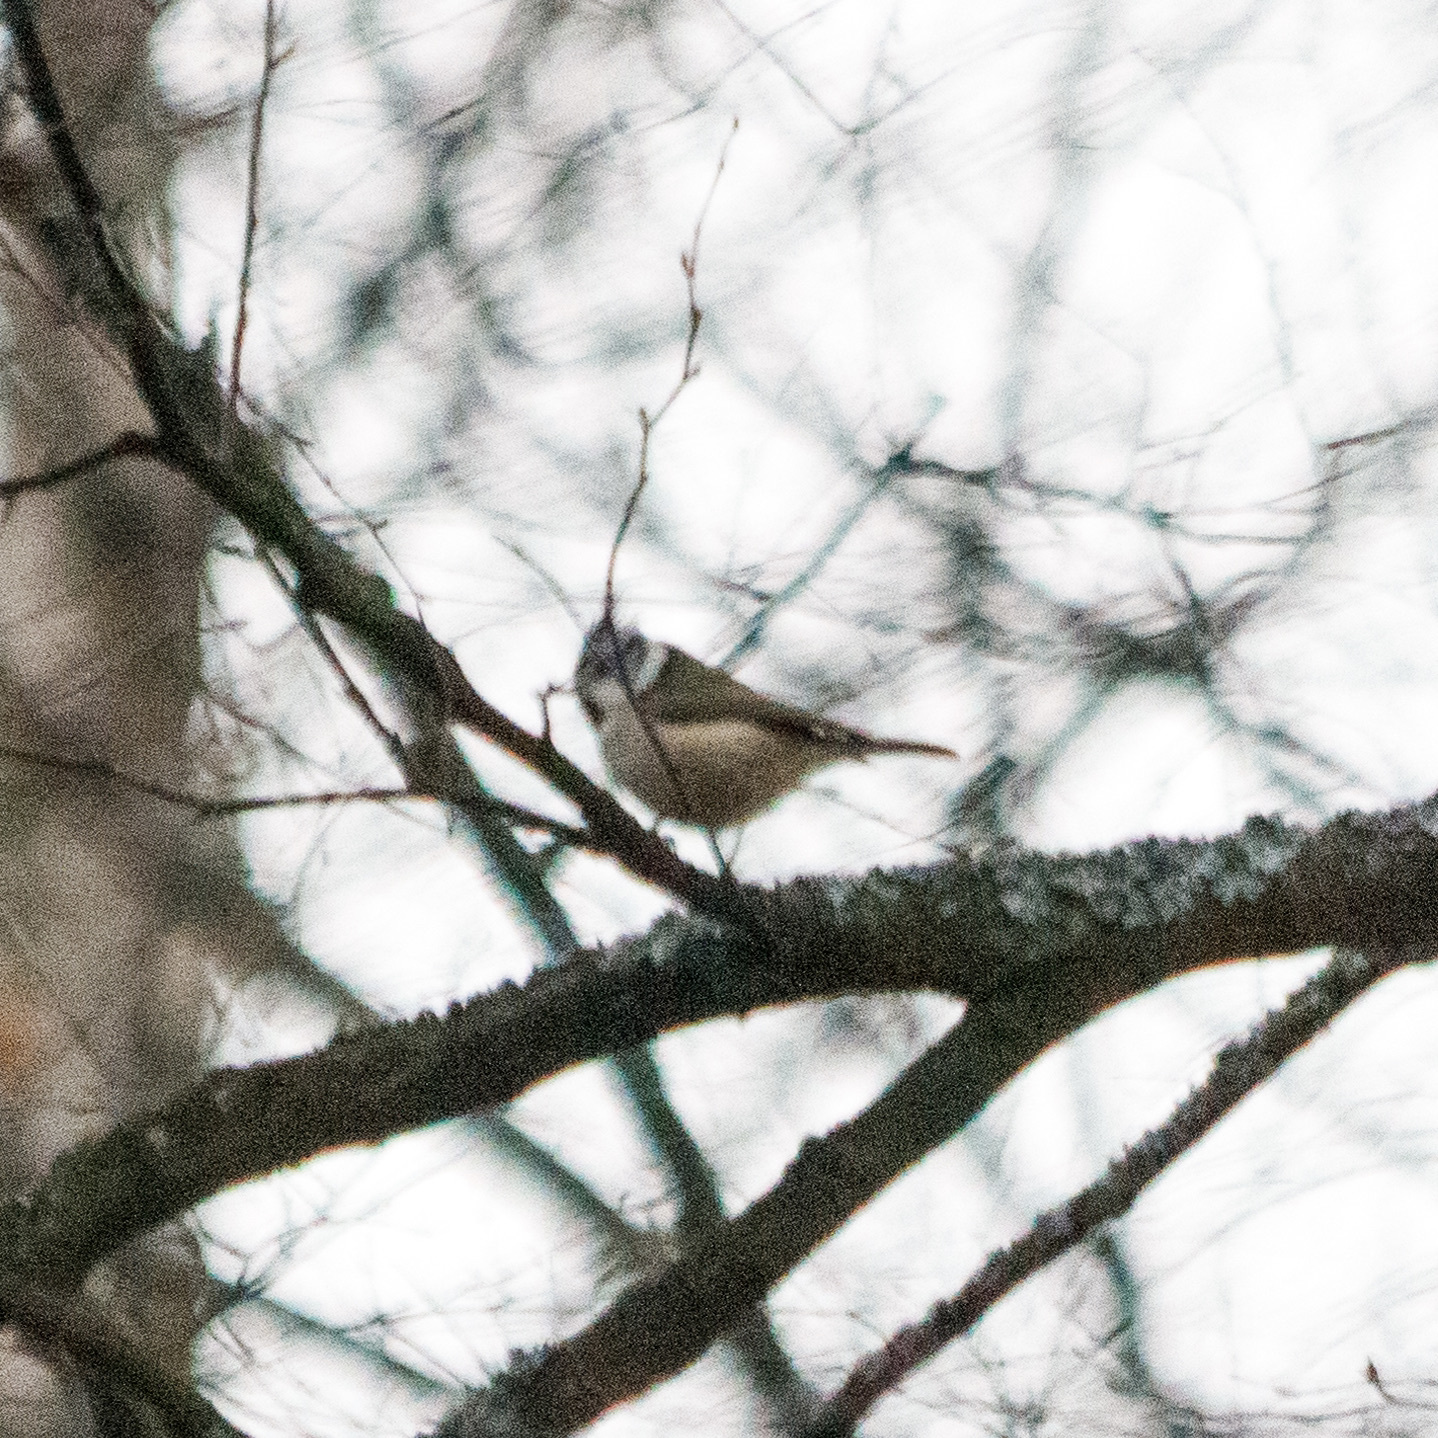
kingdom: Animalia
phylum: Chordata
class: Aves
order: Passeriformes
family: Paridae
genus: Lophophanes
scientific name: Lophophanes cristatus
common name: European crested tit
